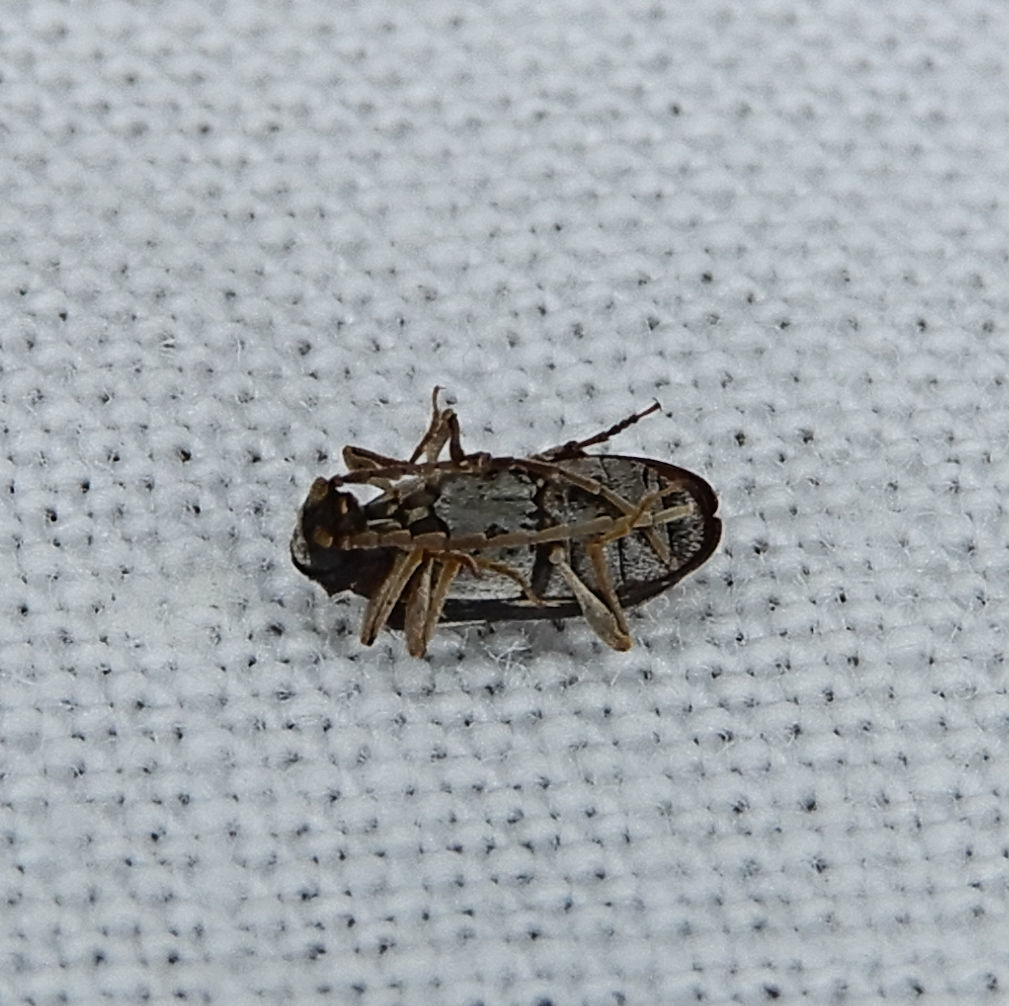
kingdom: Animalia
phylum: Arthropoda
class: Insecta
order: Coleoptera
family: Ptinidae
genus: Ptinus
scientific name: Ptinus sexpunctatus
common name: Six-spotted spider beetle
